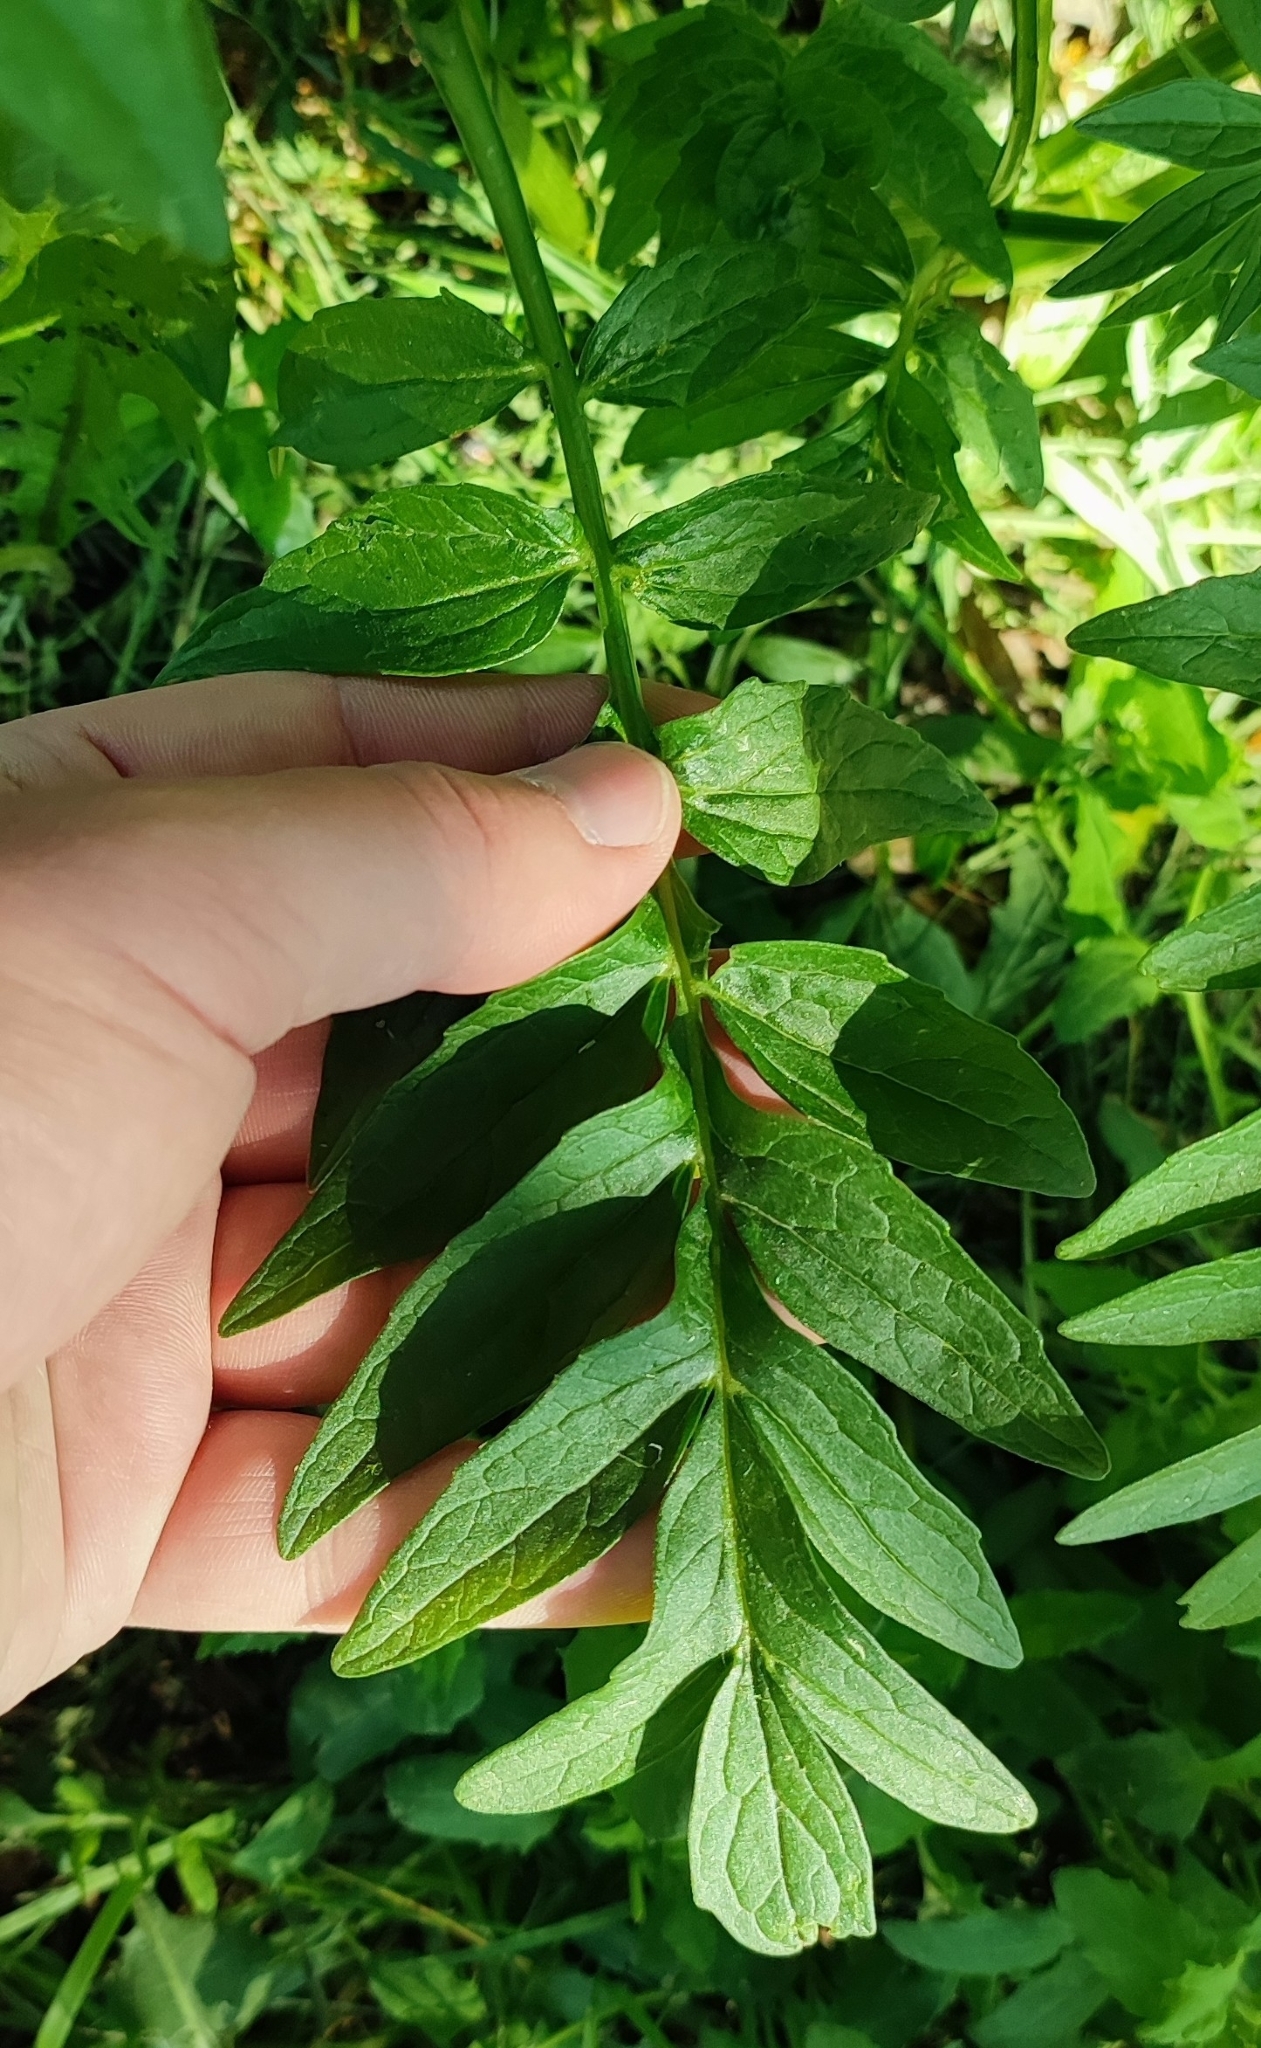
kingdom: Plantae
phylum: Tracheophyta
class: Magnoliopsida
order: Dipsacales
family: Caprifoliaceae
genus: Valeriana
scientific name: Valeriana wolgensis
